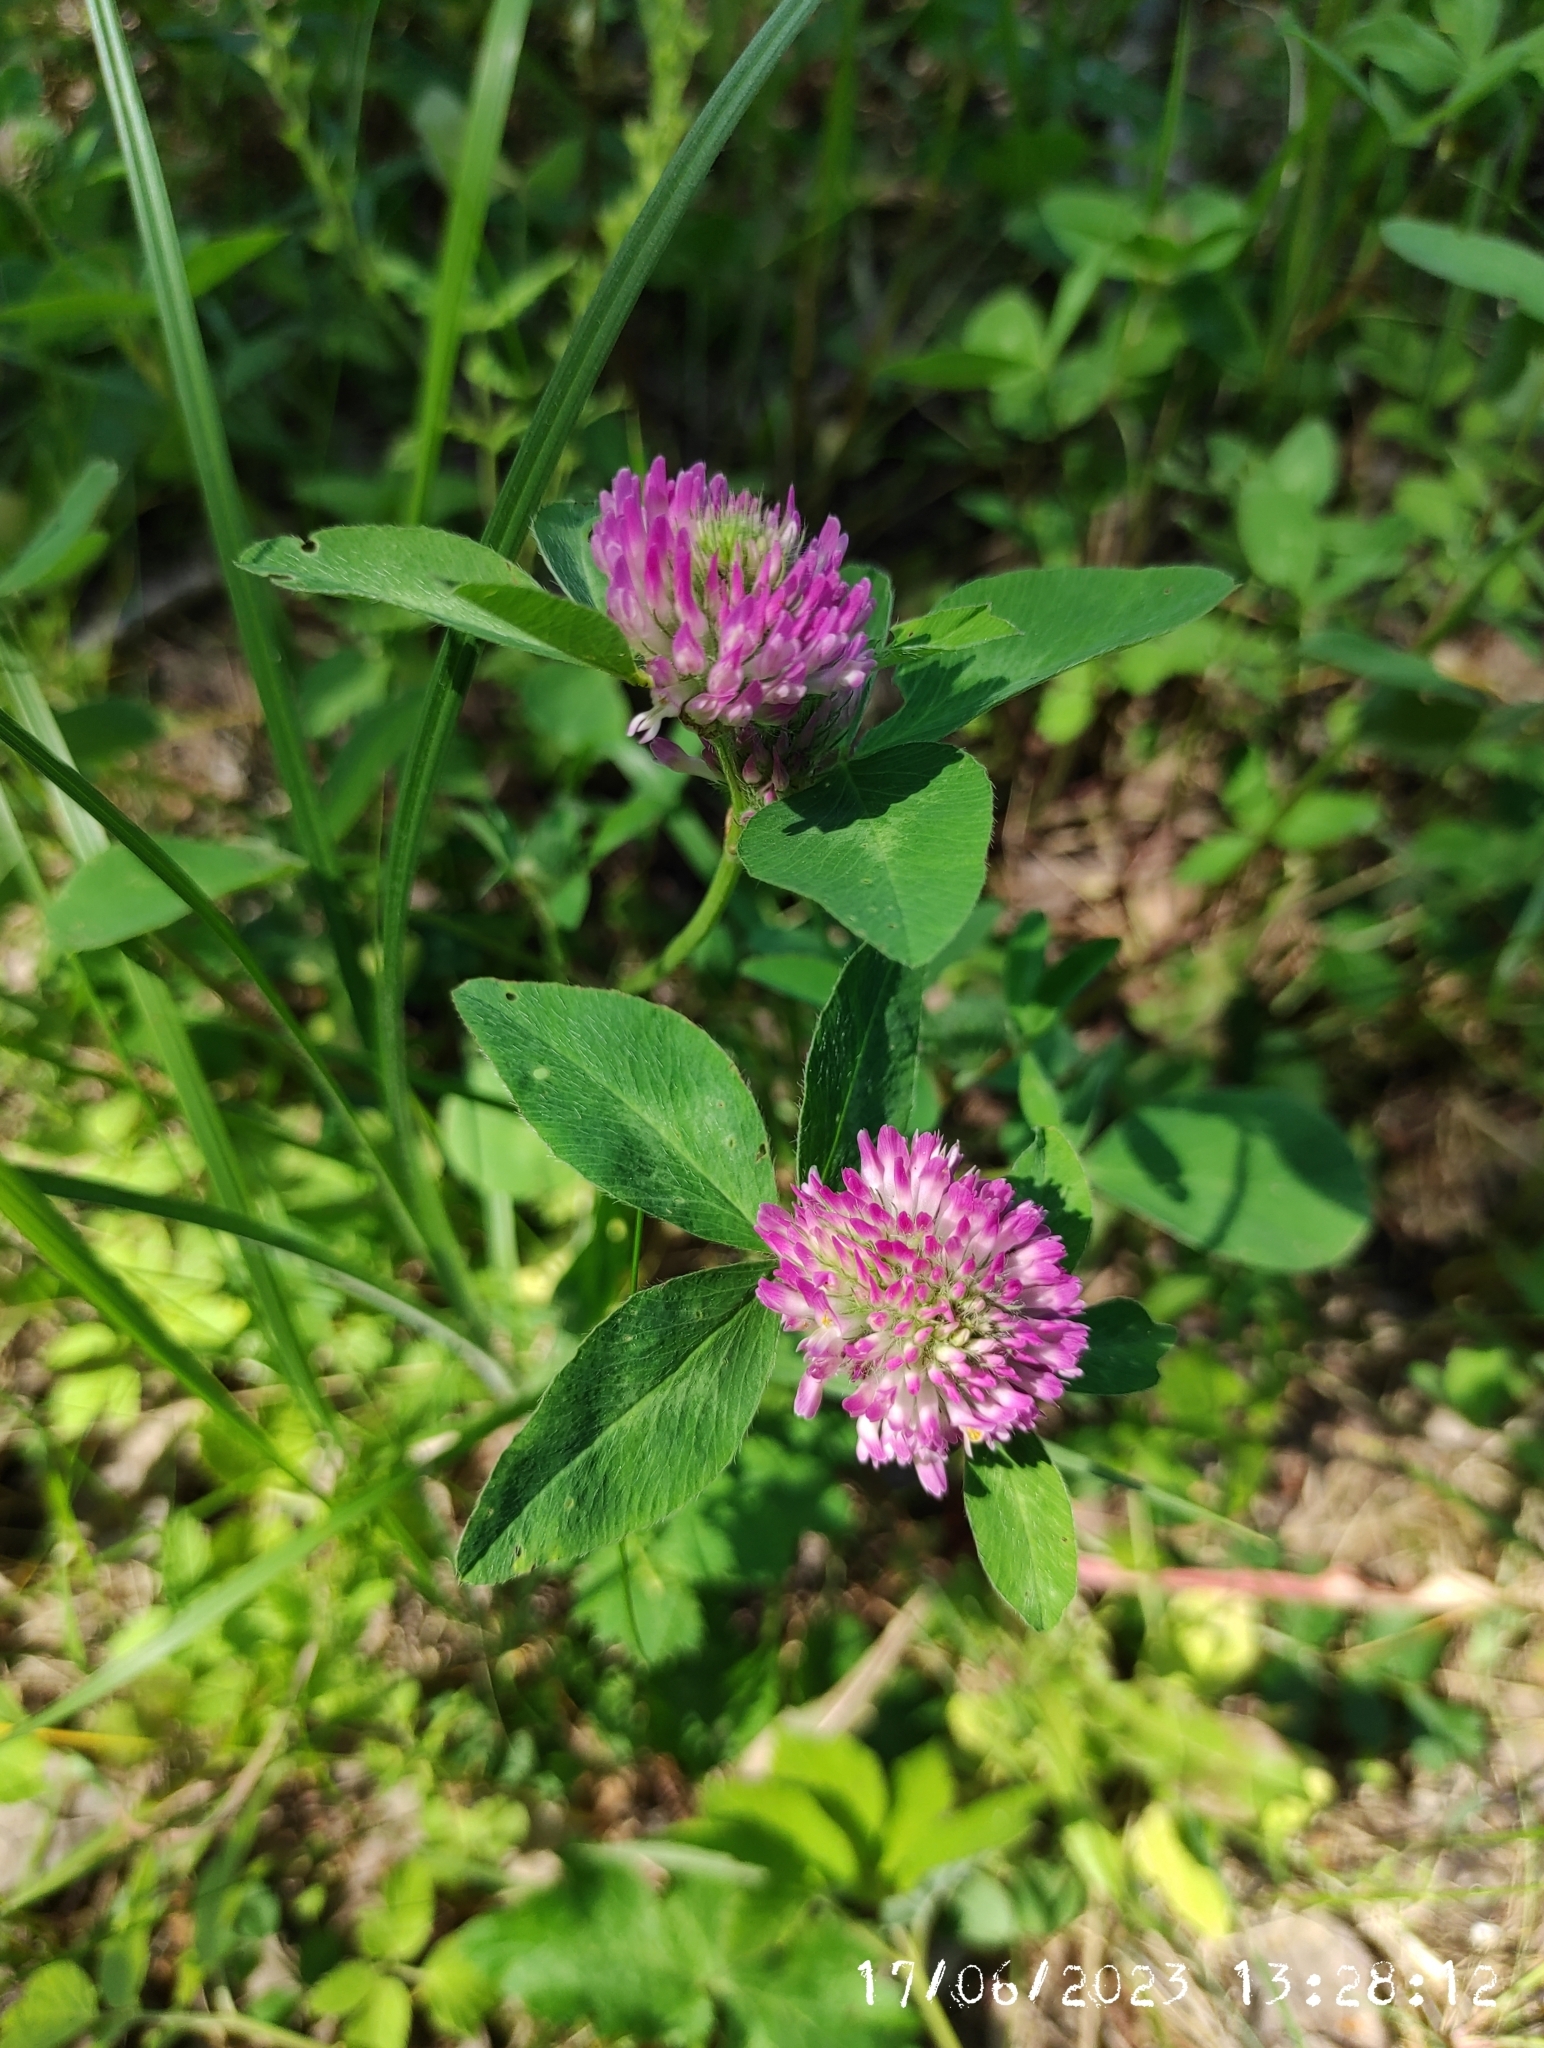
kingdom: Plantae
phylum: Tracheophyta
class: Magnoliopsida
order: Fabales
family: Fabaceae
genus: Trifolium
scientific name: Trifolium pratense
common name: Red clover
